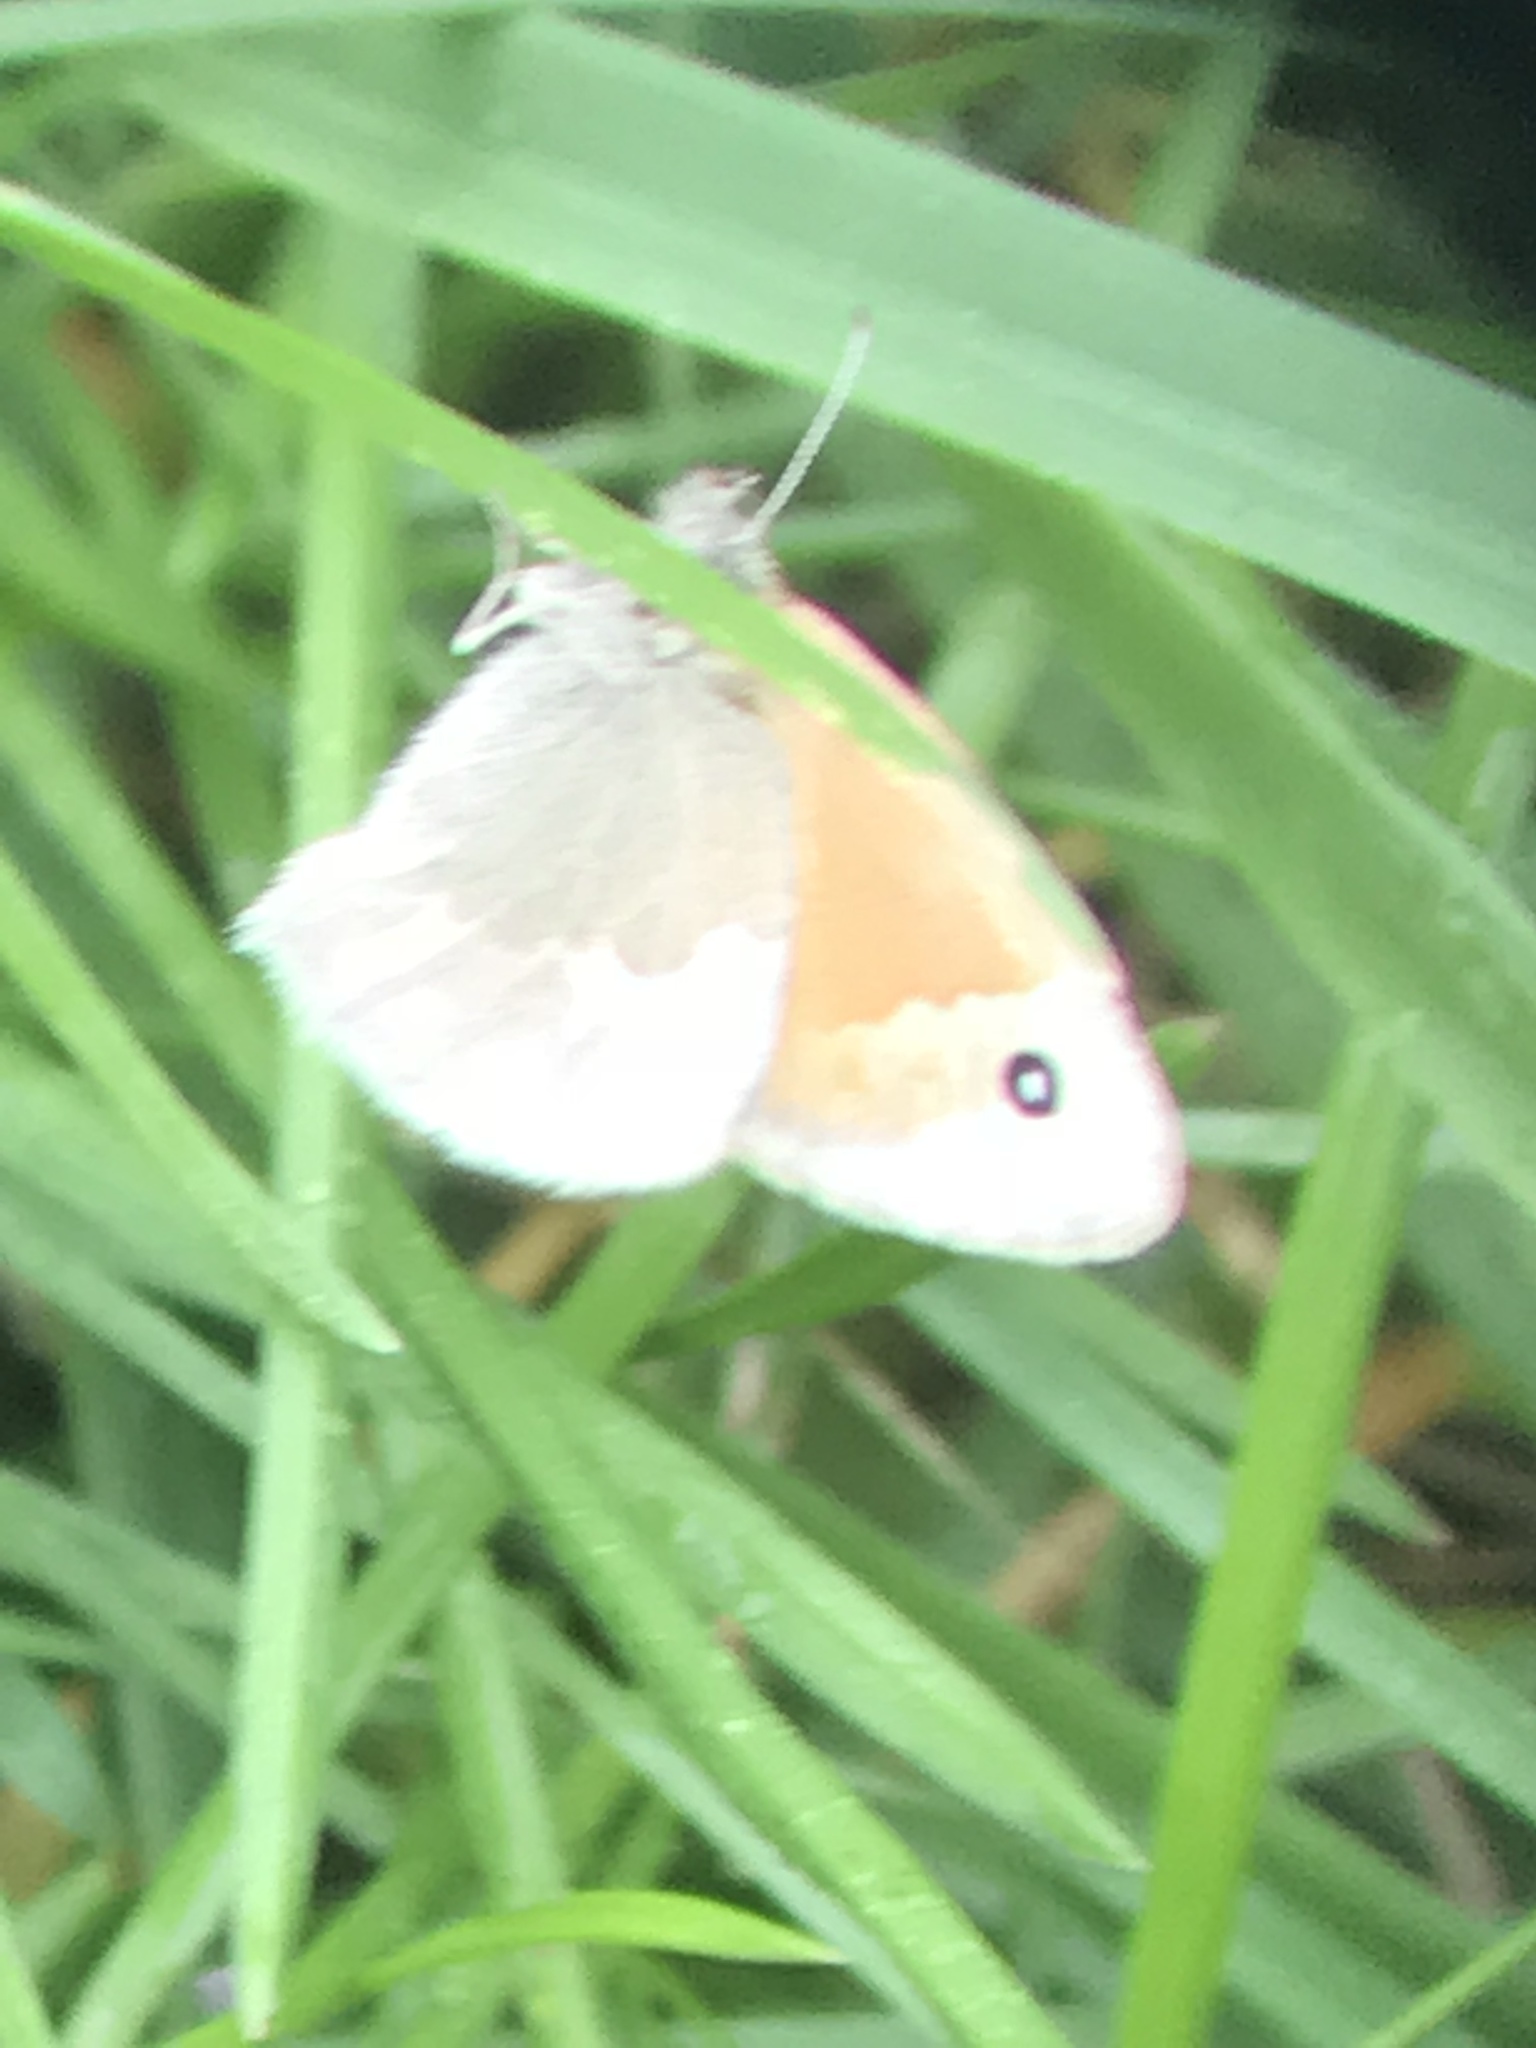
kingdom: Animalia
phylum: Arthropoda
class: Insecta
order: Lepidoptera
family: Nymphalidae
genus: Coenonympha
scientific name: Coenonympha california
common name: Common ringlet
